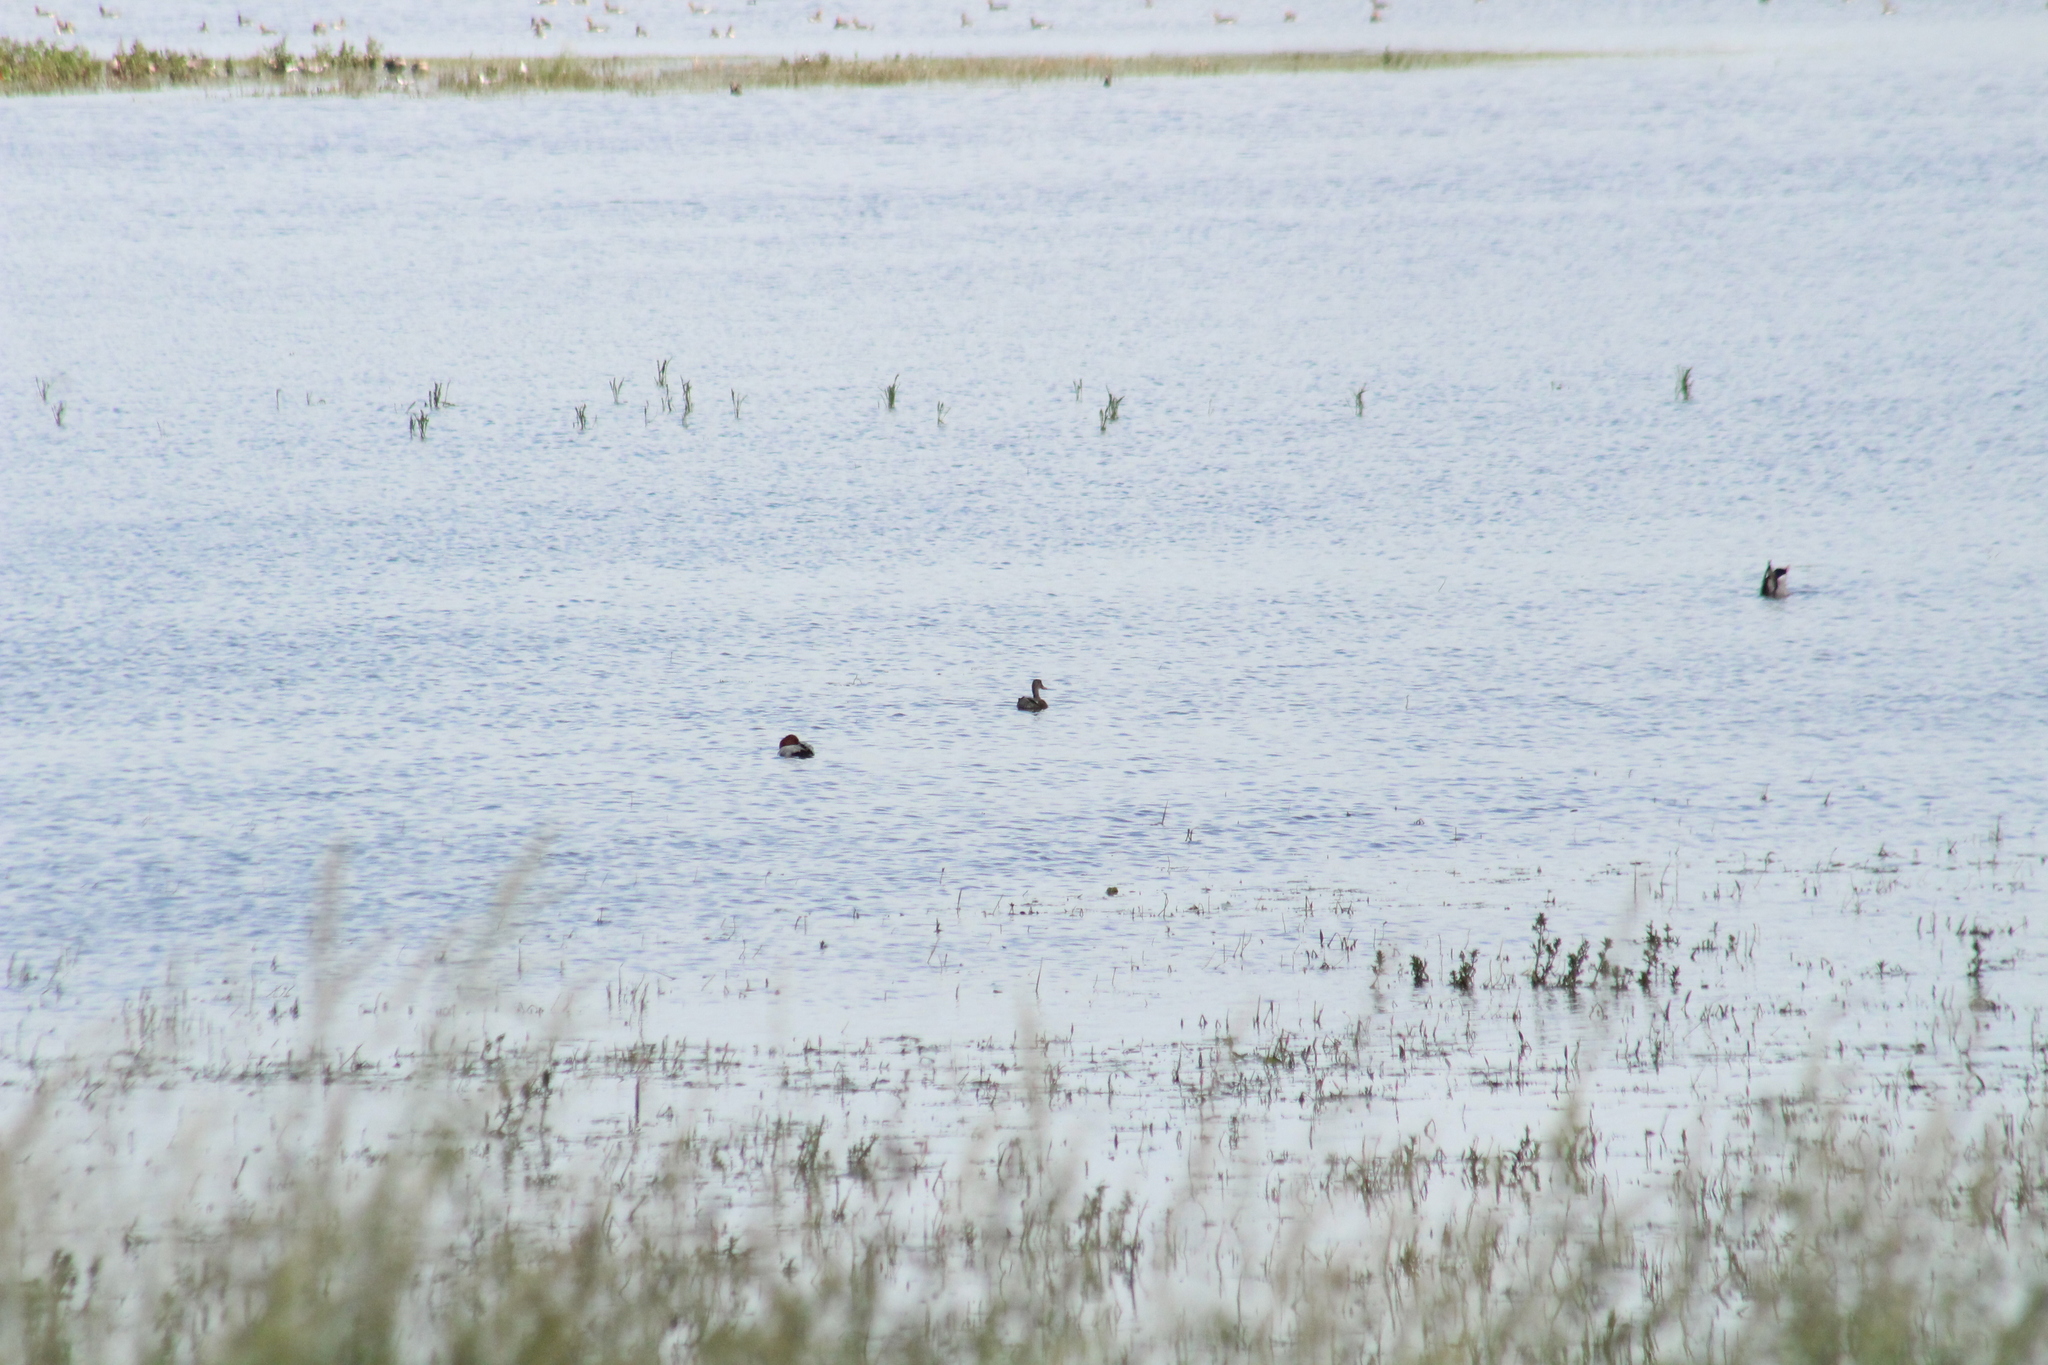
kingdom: Animalia
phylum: Chordata
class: Aves
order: Anseriformes
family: Anatidae
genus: Aythya
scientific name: Aythya ferina
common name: Common pochard
